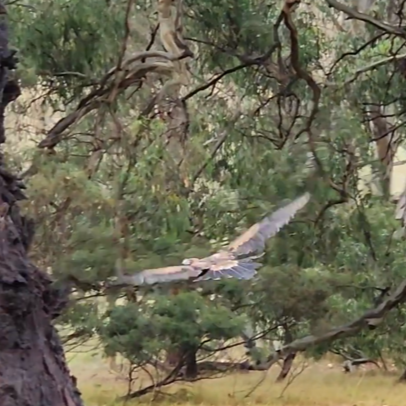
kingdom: Animalia
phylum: Chordata
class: Aves
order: Accipitriformes
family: Accipitridae
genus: Aquila
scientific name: Aquila audax
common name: Wedge-tailed eagle
